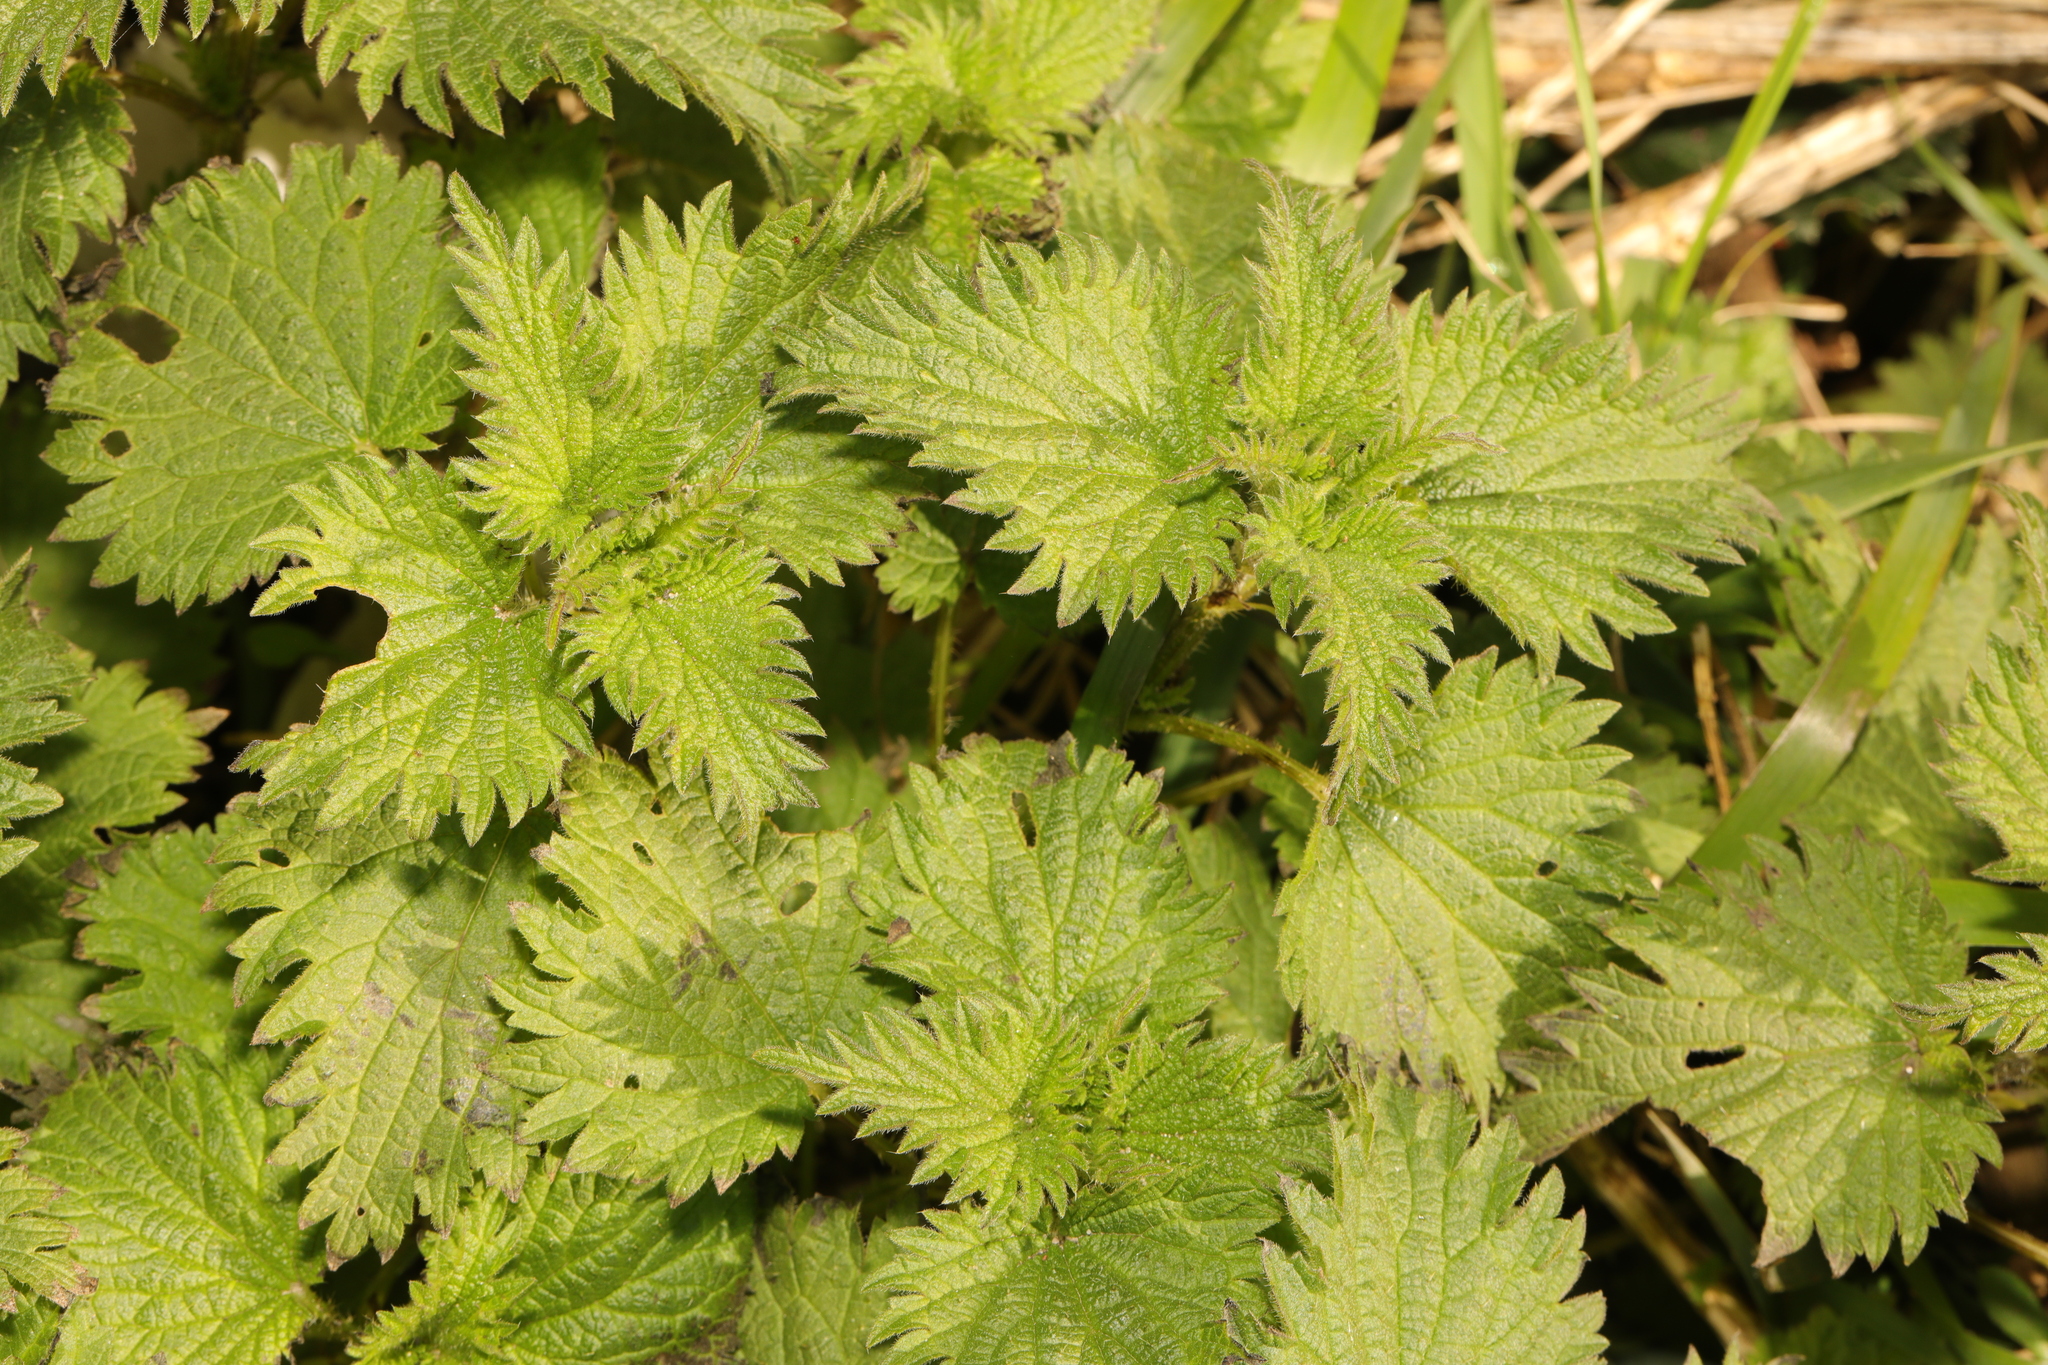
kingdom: Plantae
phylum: Tracheophyta
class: Magnoliopsida
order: Rosales
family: Urticaceae
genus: Urtica
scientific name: Urtica dioica
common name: Common nettle
